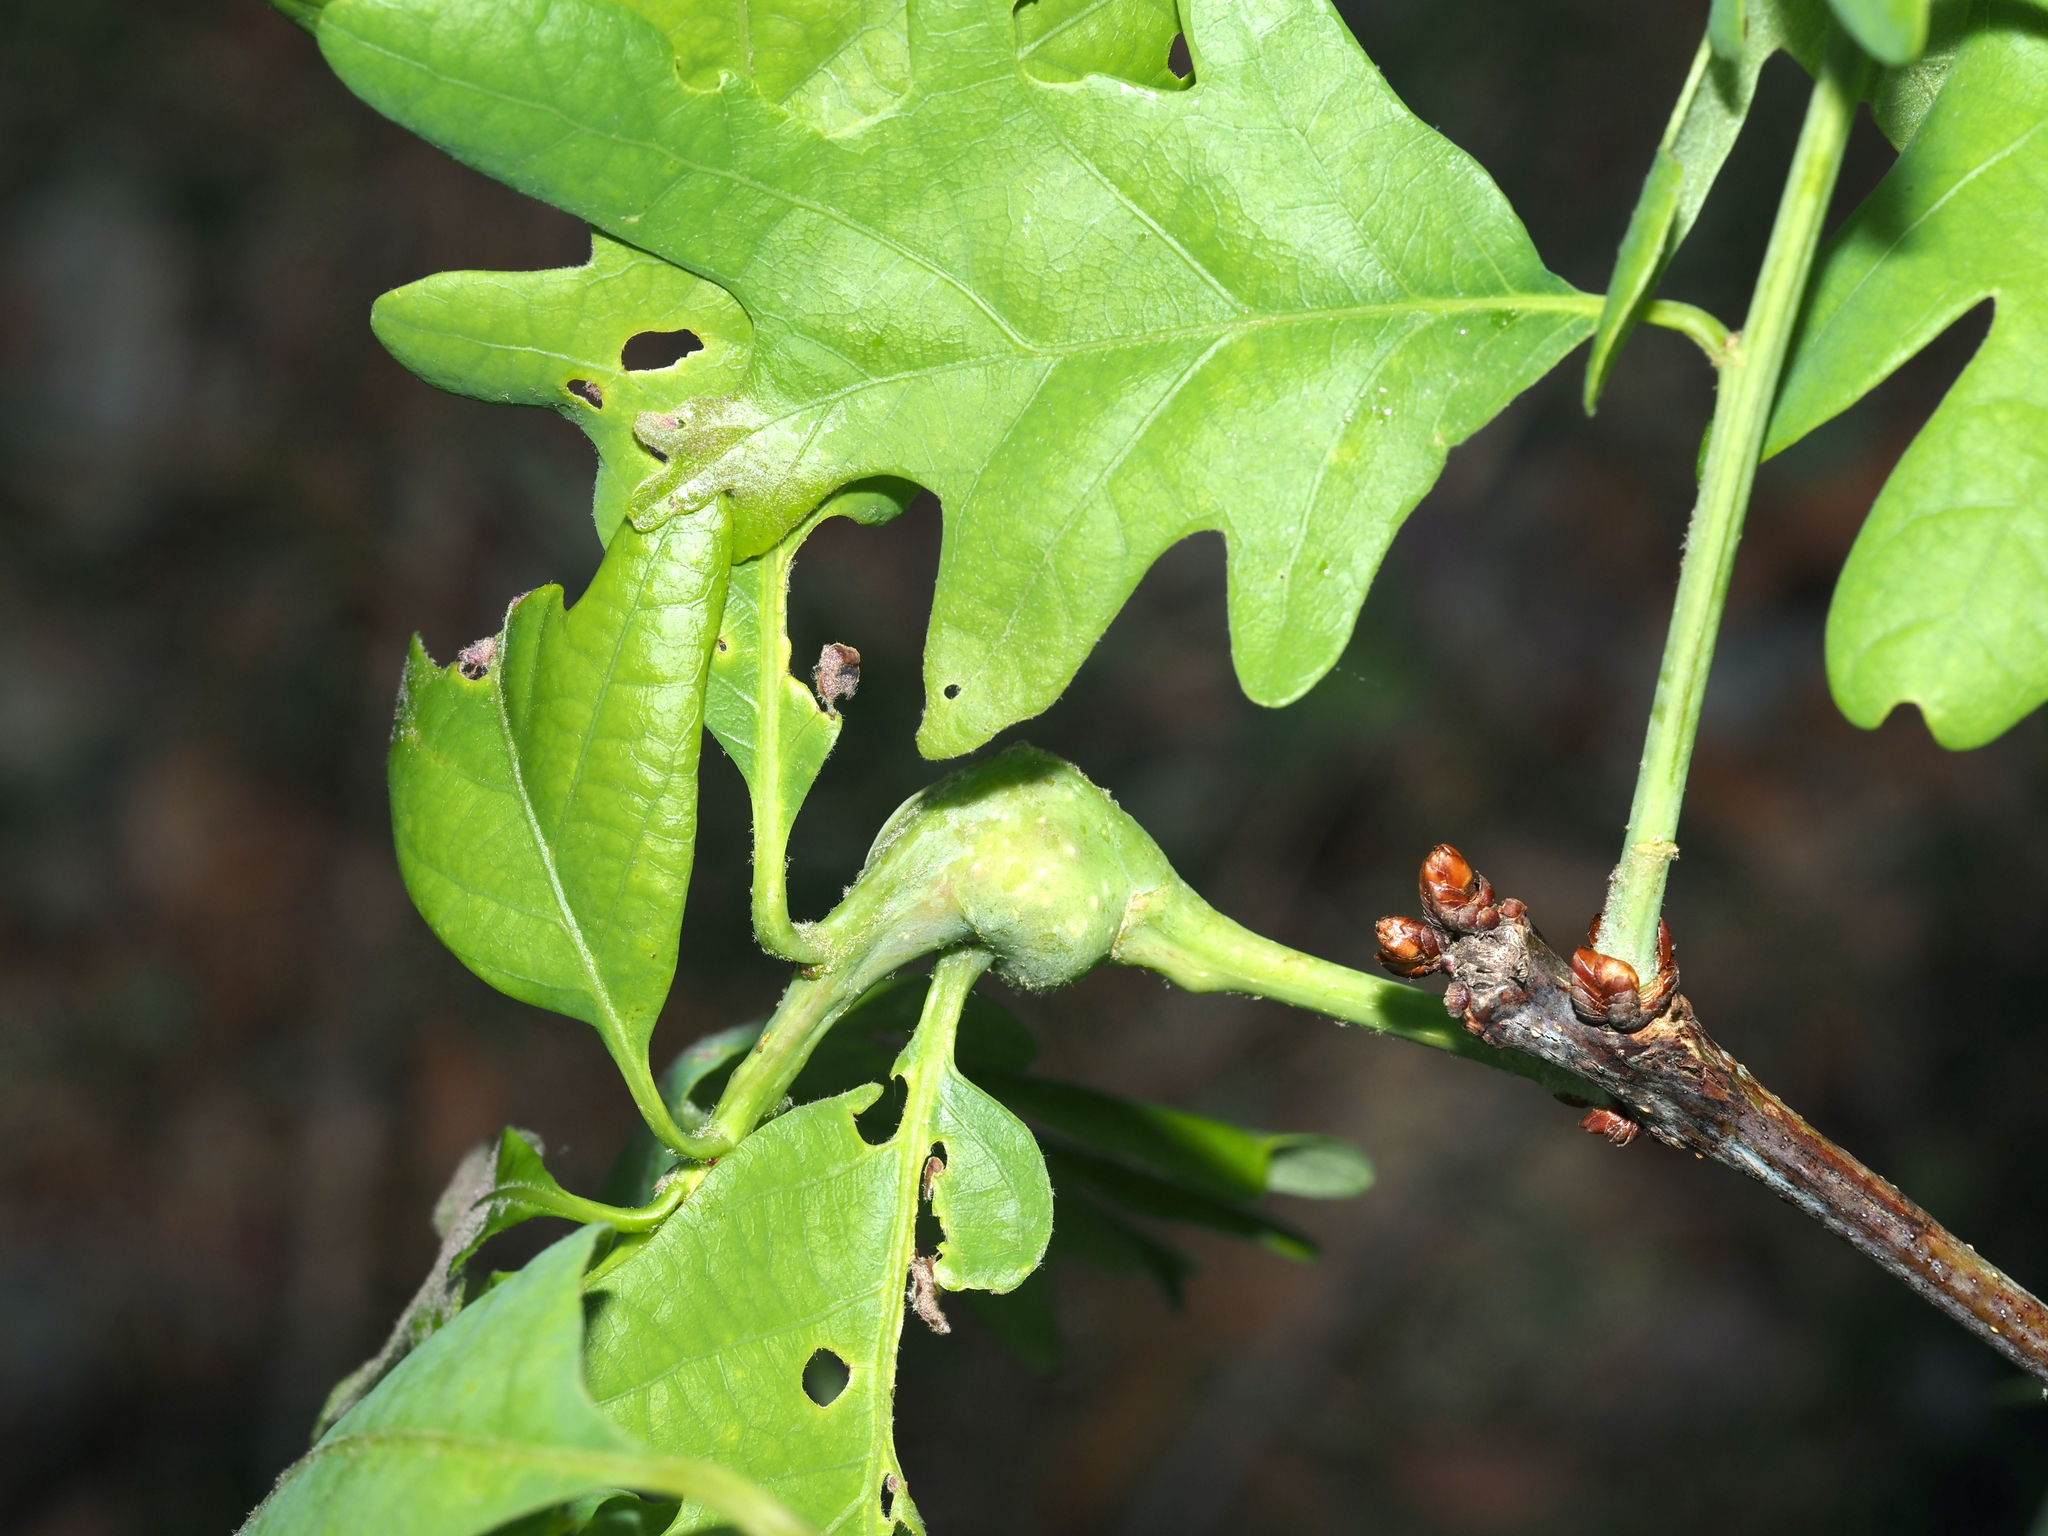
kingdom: Animalia
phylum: Arthropoda
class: Insecta
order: Hymenoptera
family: Cynipidae
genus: Callirhytis
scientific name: Callirhytis clavula
